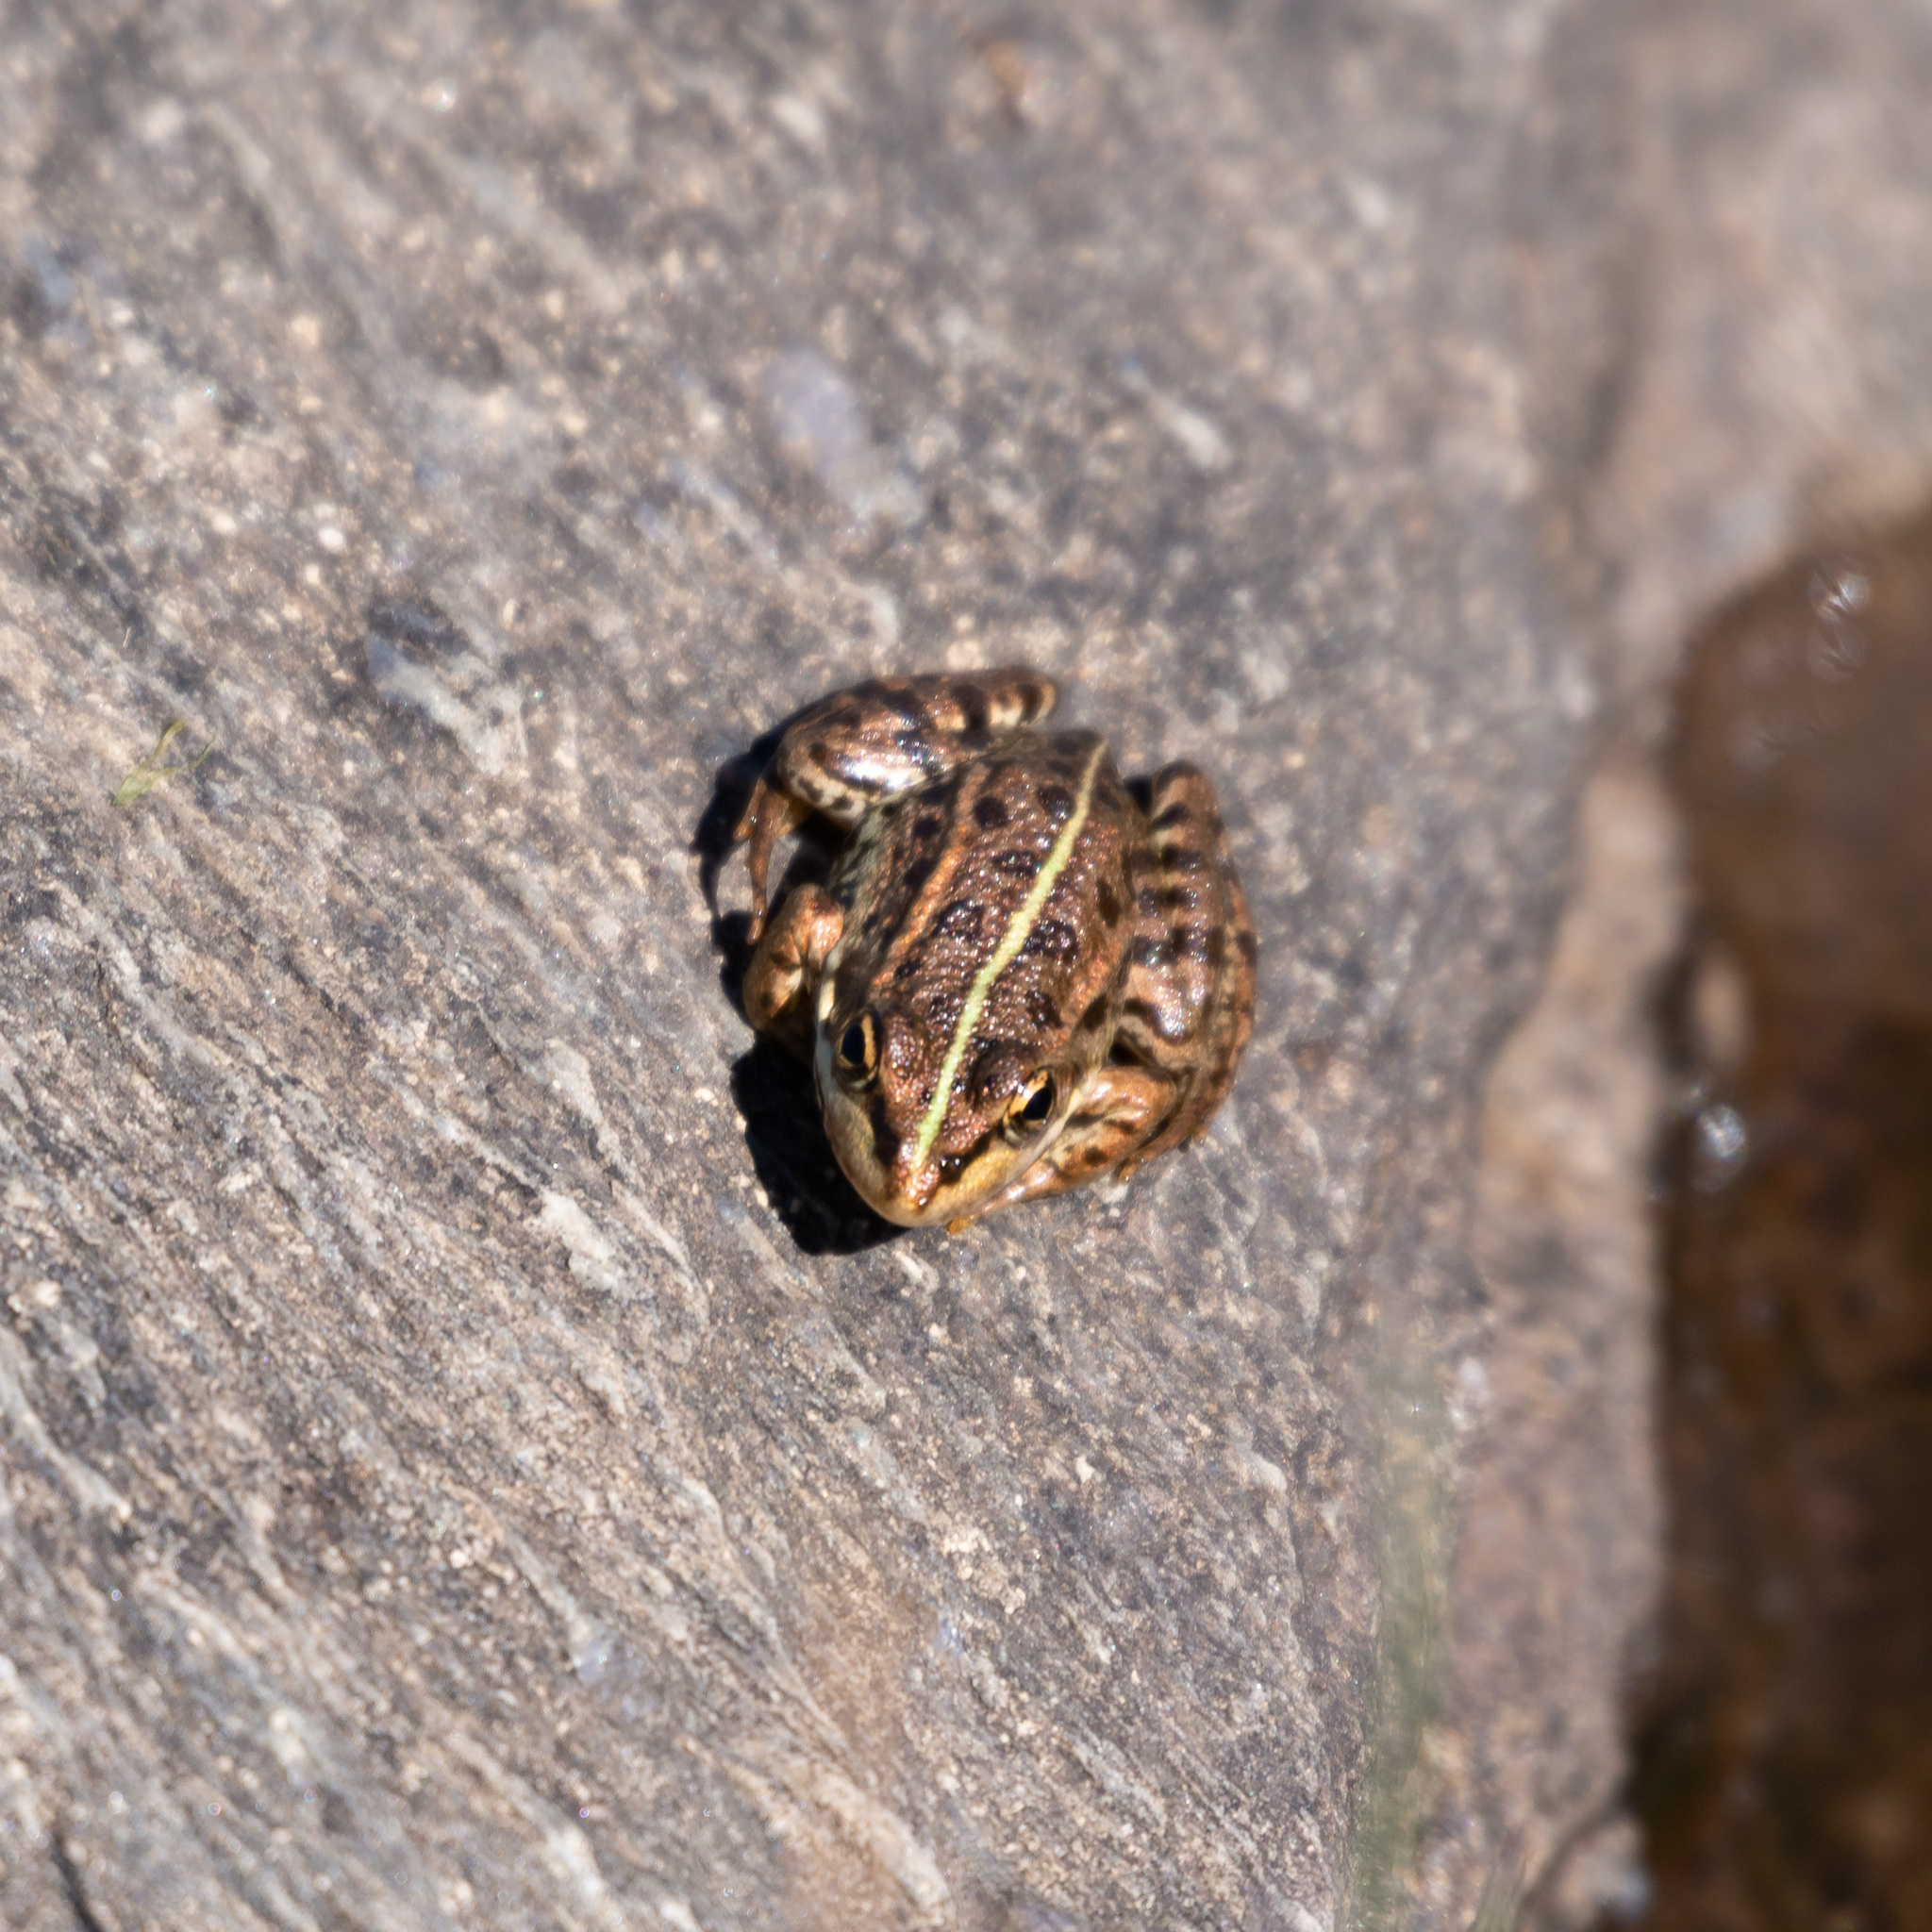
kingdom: Animalia
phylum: Chordata
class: Amphibia
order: Anura
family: Ranidae
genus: Pelophylax
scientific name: Pelophylax perezi
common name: Perez's frog
